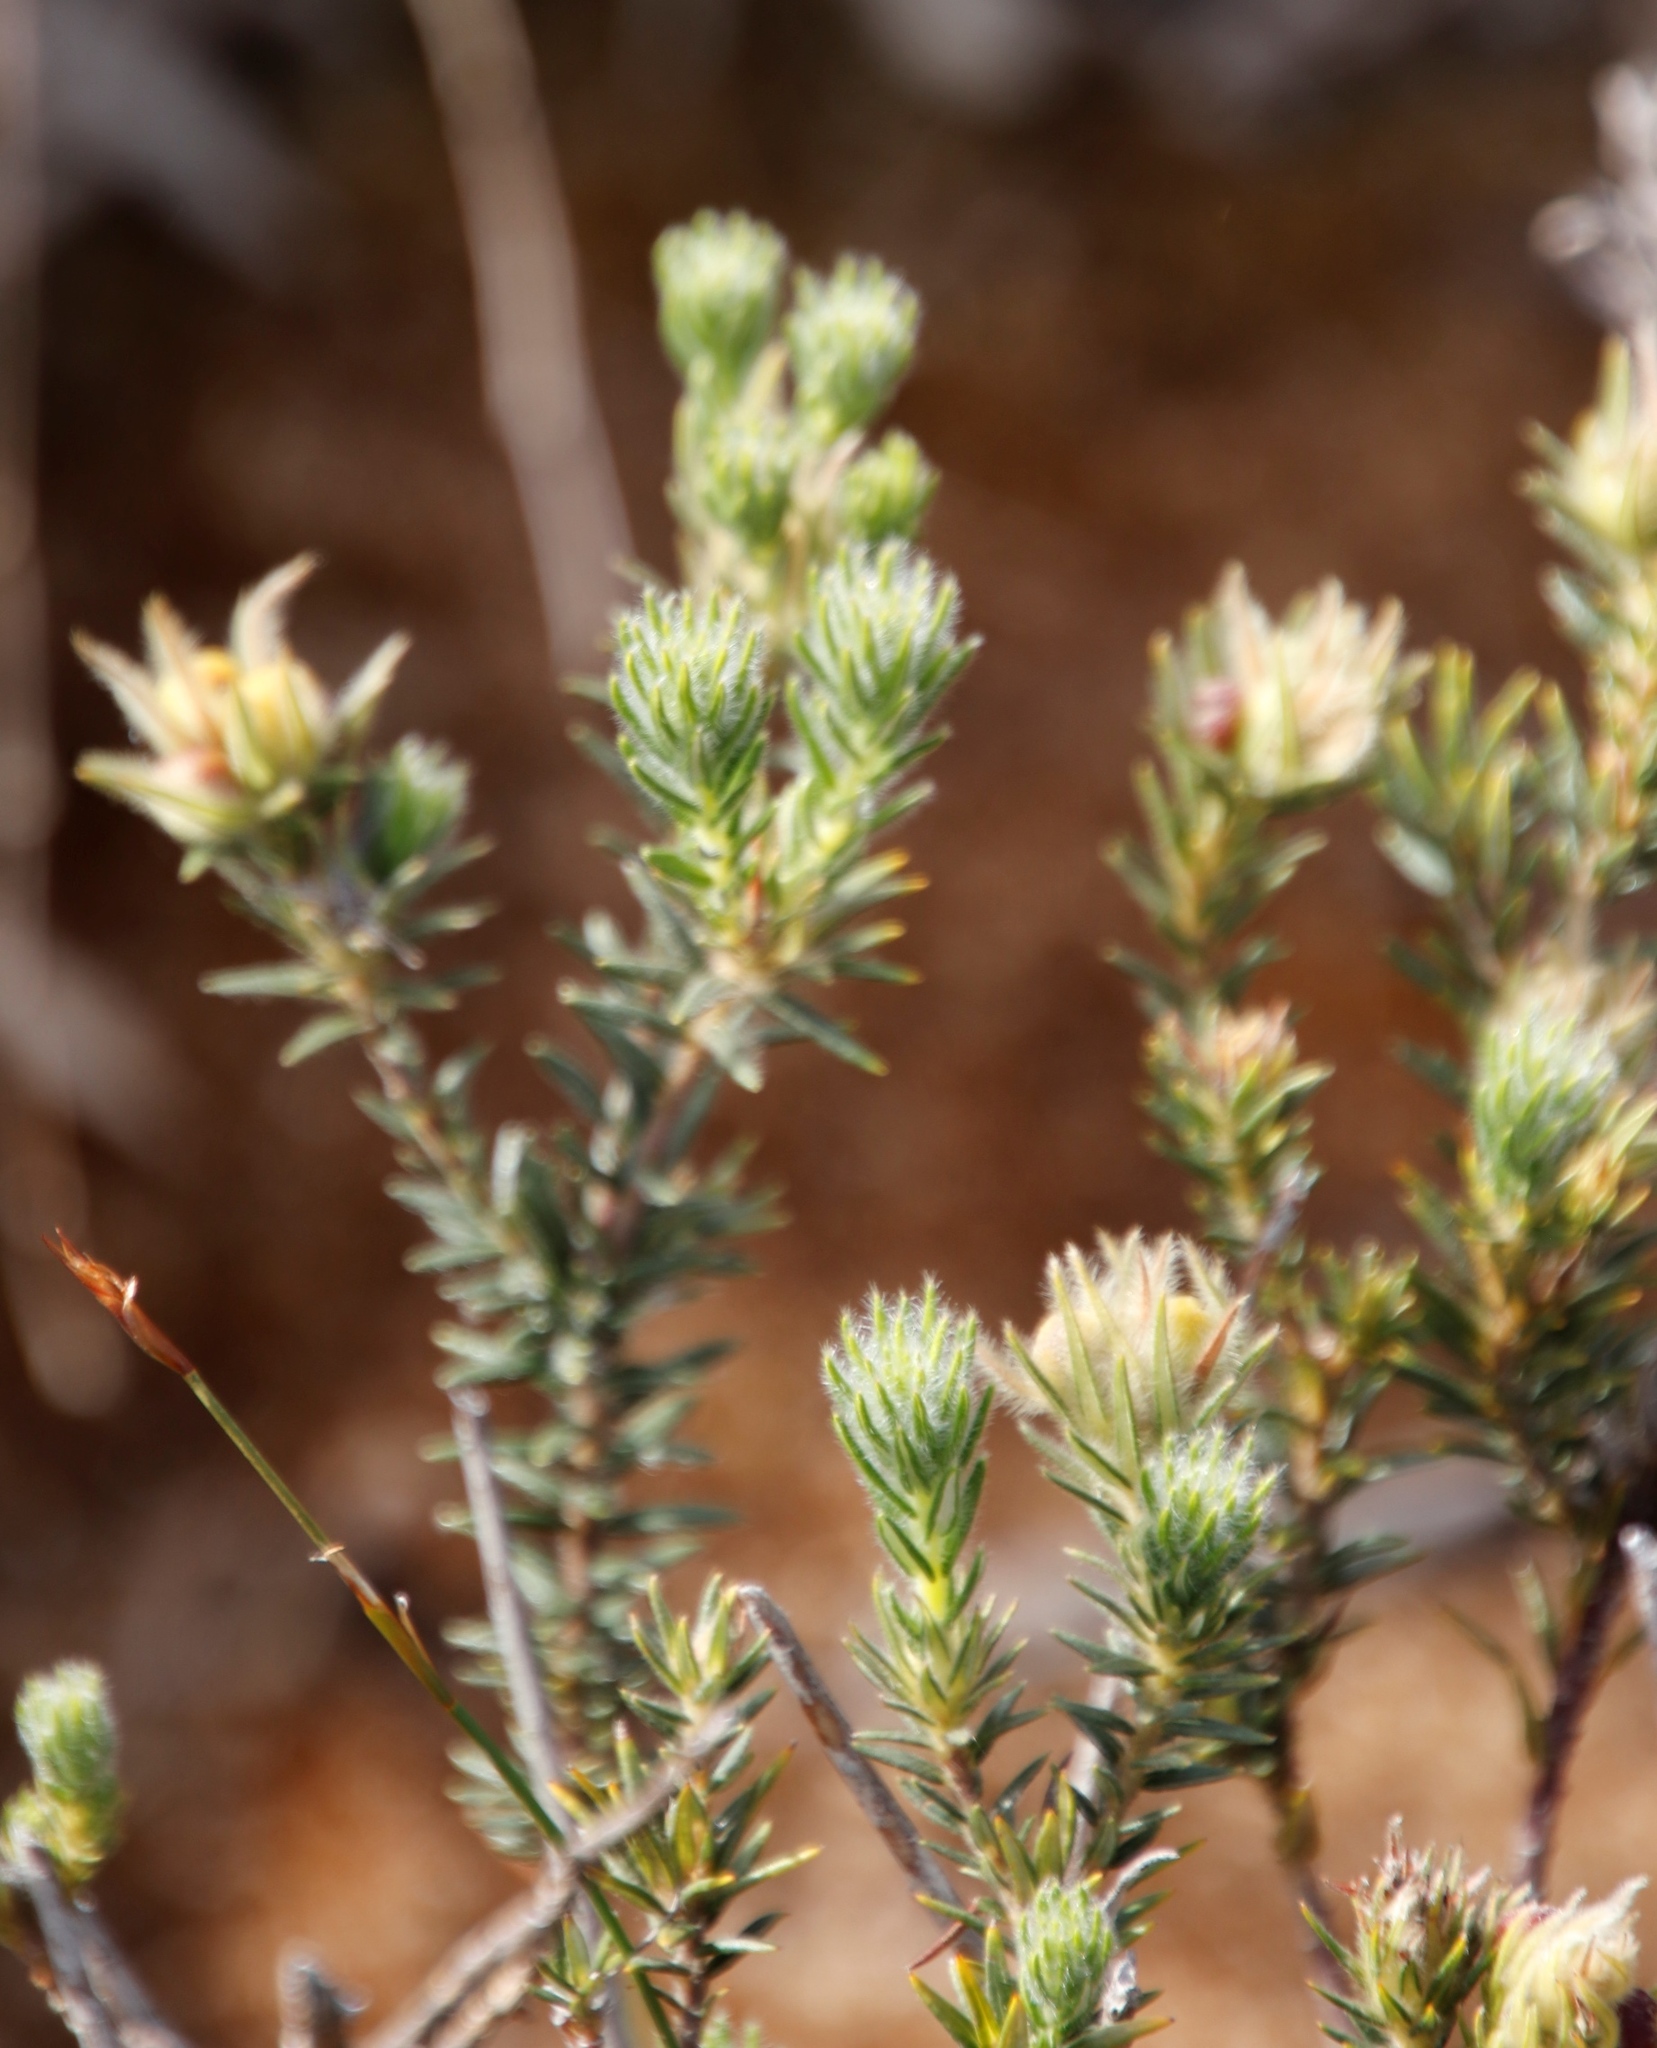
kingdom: Plantae
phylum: Tracheophyta
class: Magnoliopsida
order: Rosales
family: Rhamnaceae
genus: Phylica
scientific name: Phylica pubescens
